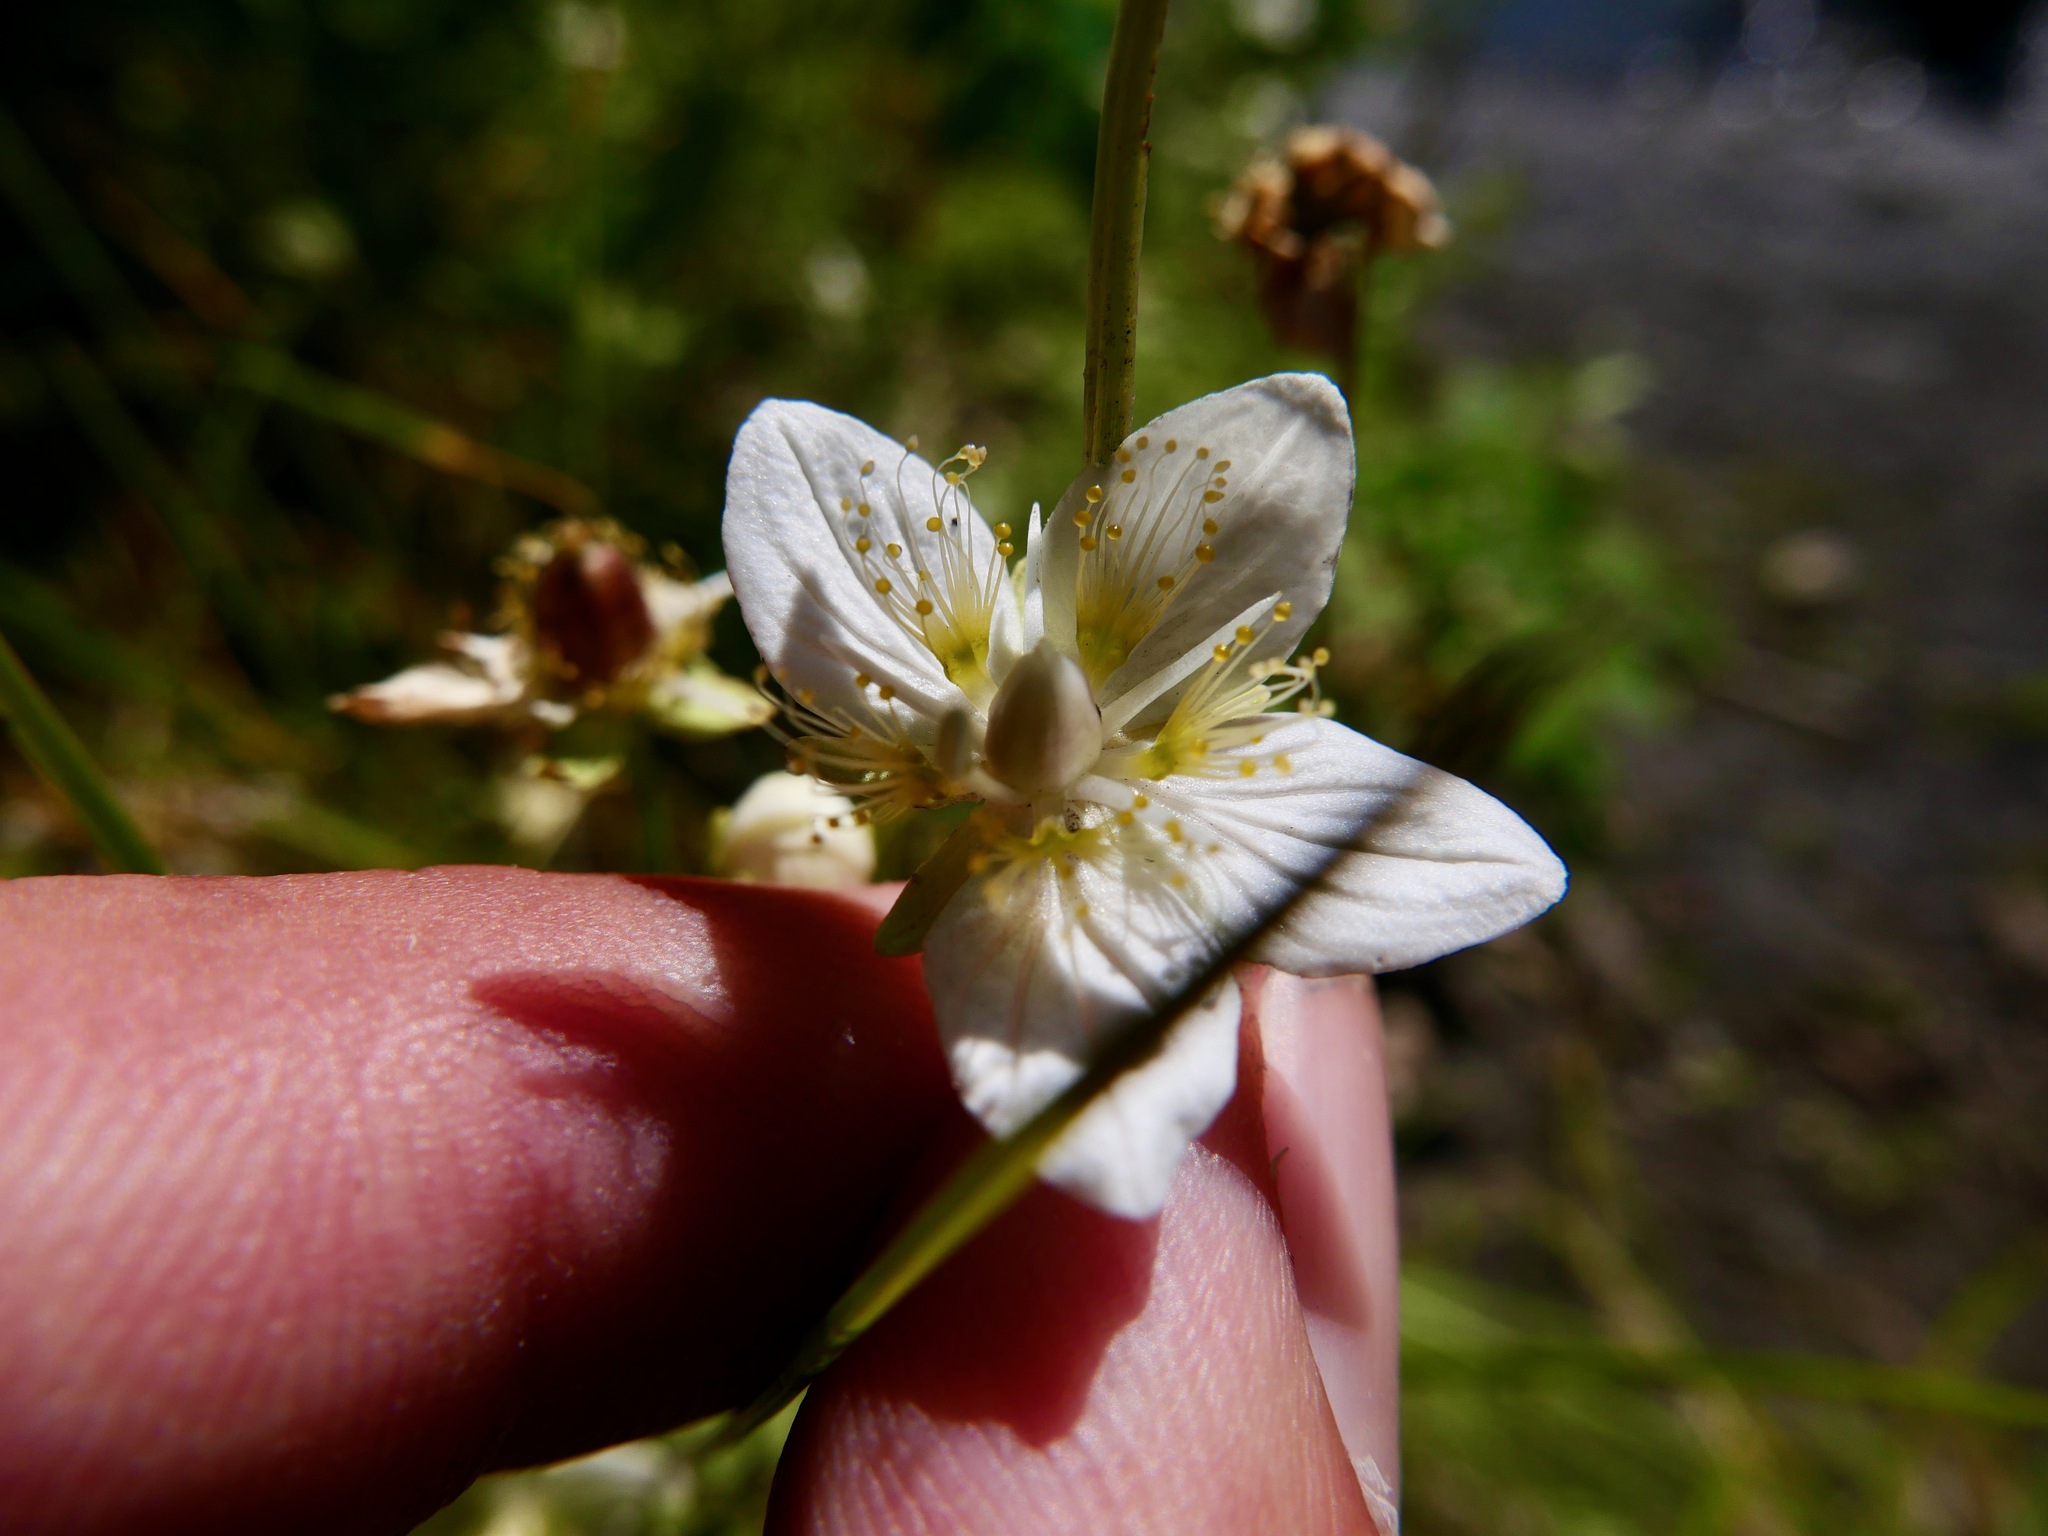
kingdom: Plantae
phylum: Tracheophyta
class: Magnoliopsida
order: Celastrales
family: Parnassiaceae
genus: Parnassia
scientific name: Parnassia palustris
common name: Grass-of-parnassus
